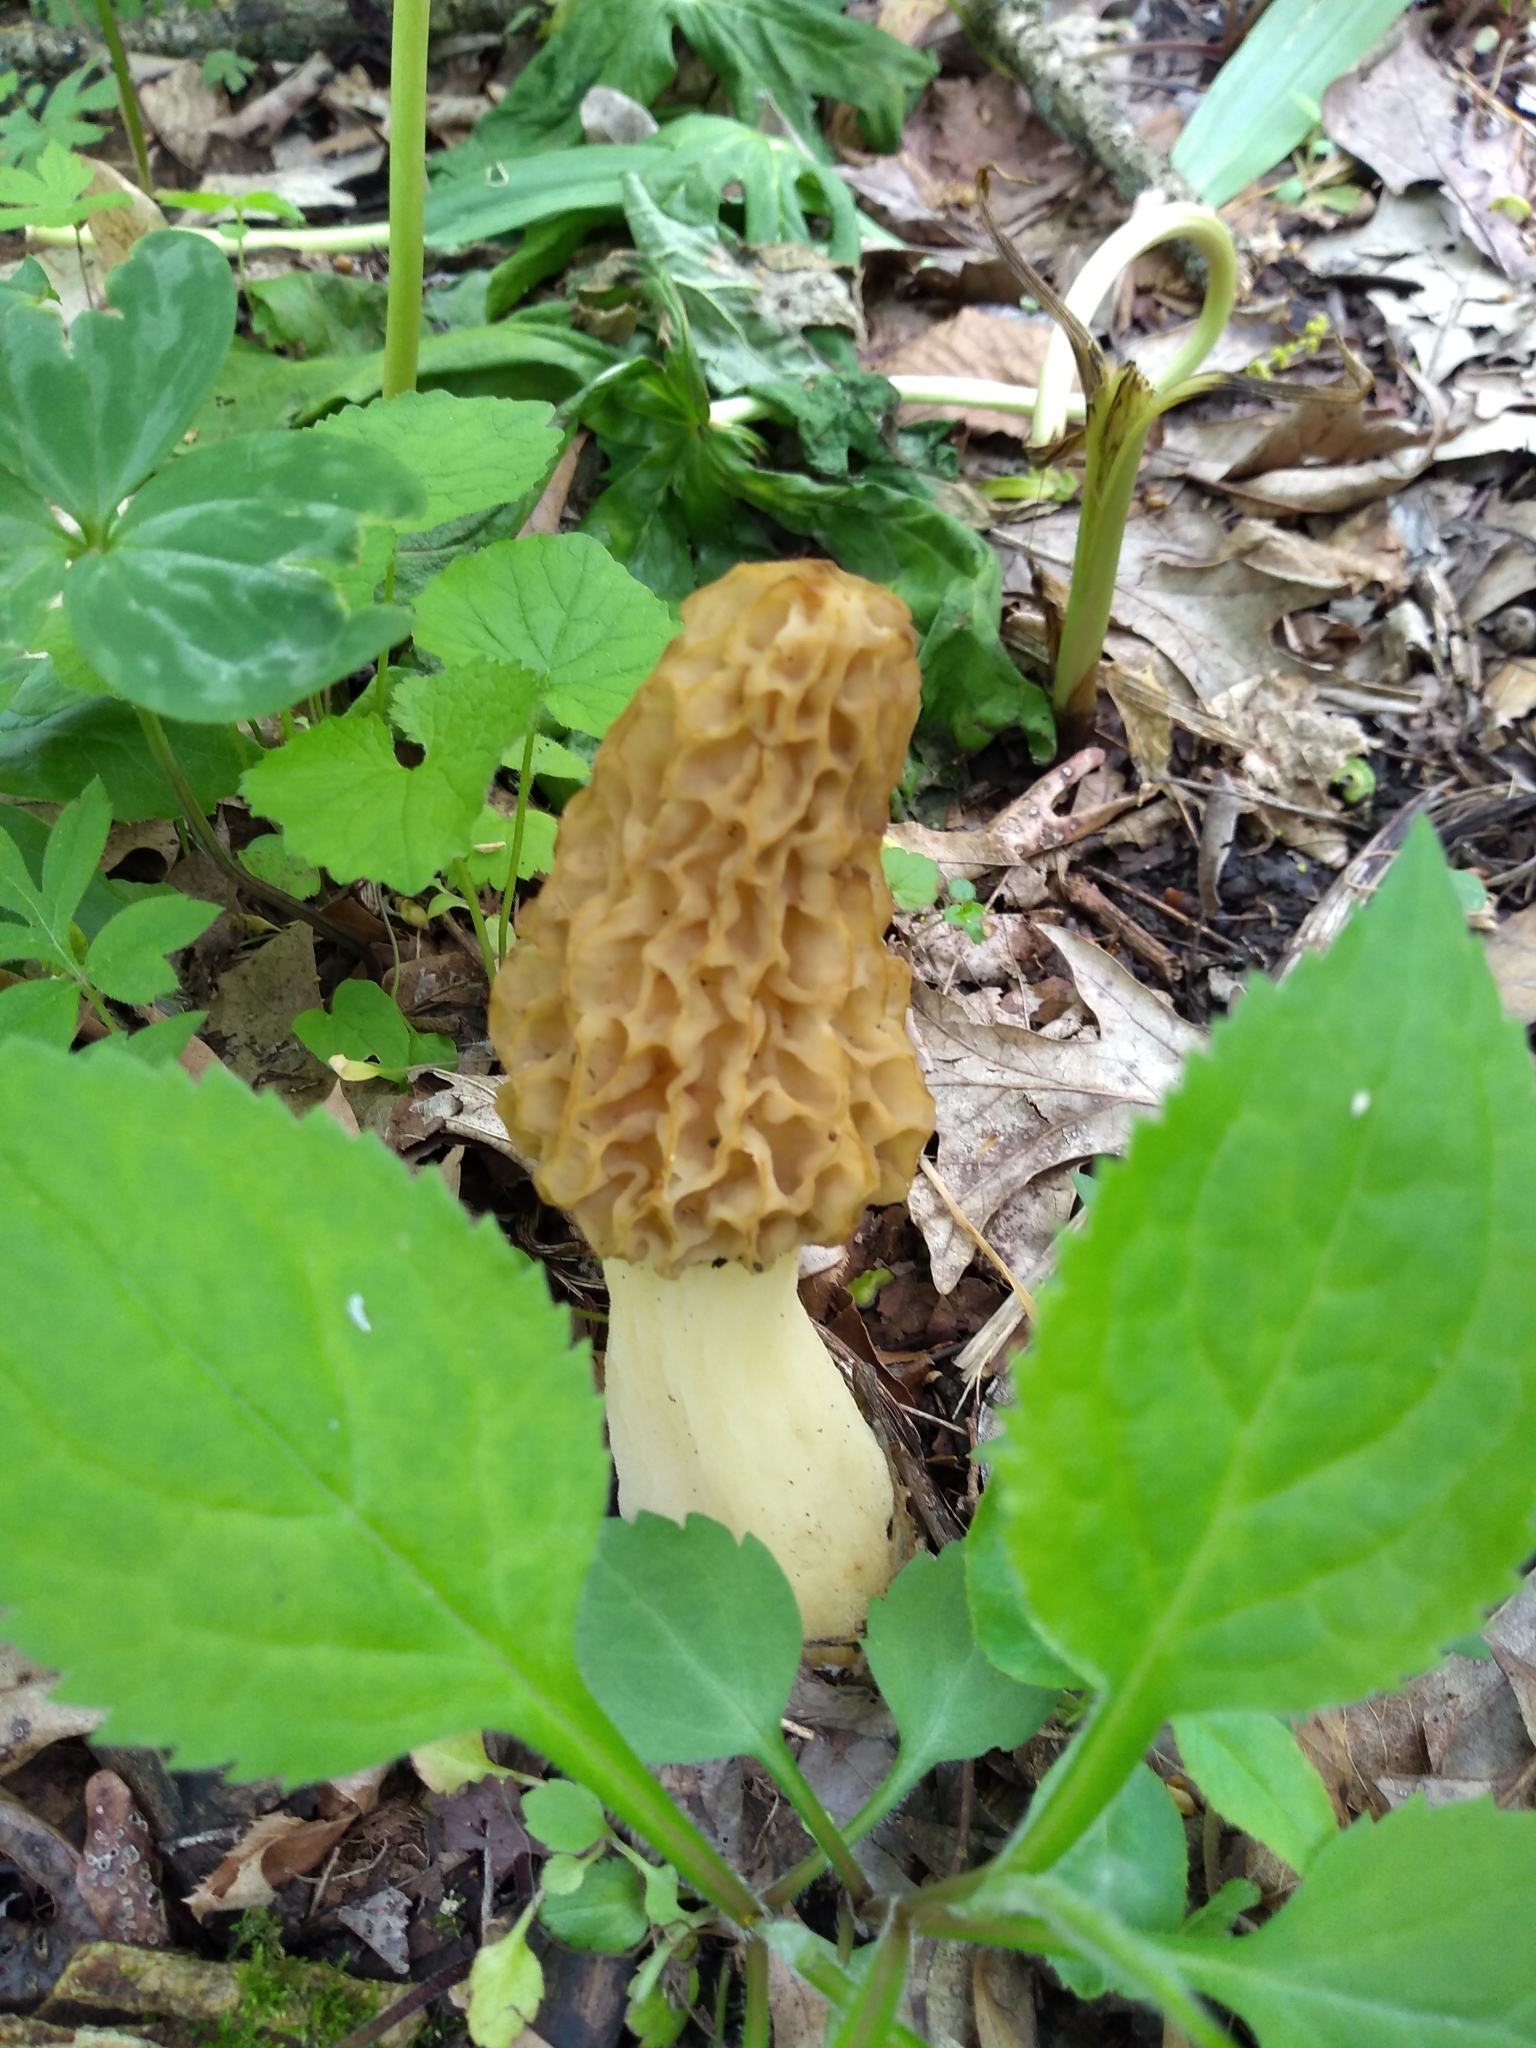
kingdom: Fungi
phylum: Ascomycota
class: Pezizomycetes
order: Pezizales
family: Morchellaceae
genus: Morchella
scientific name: Morchella americana
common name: White morel
